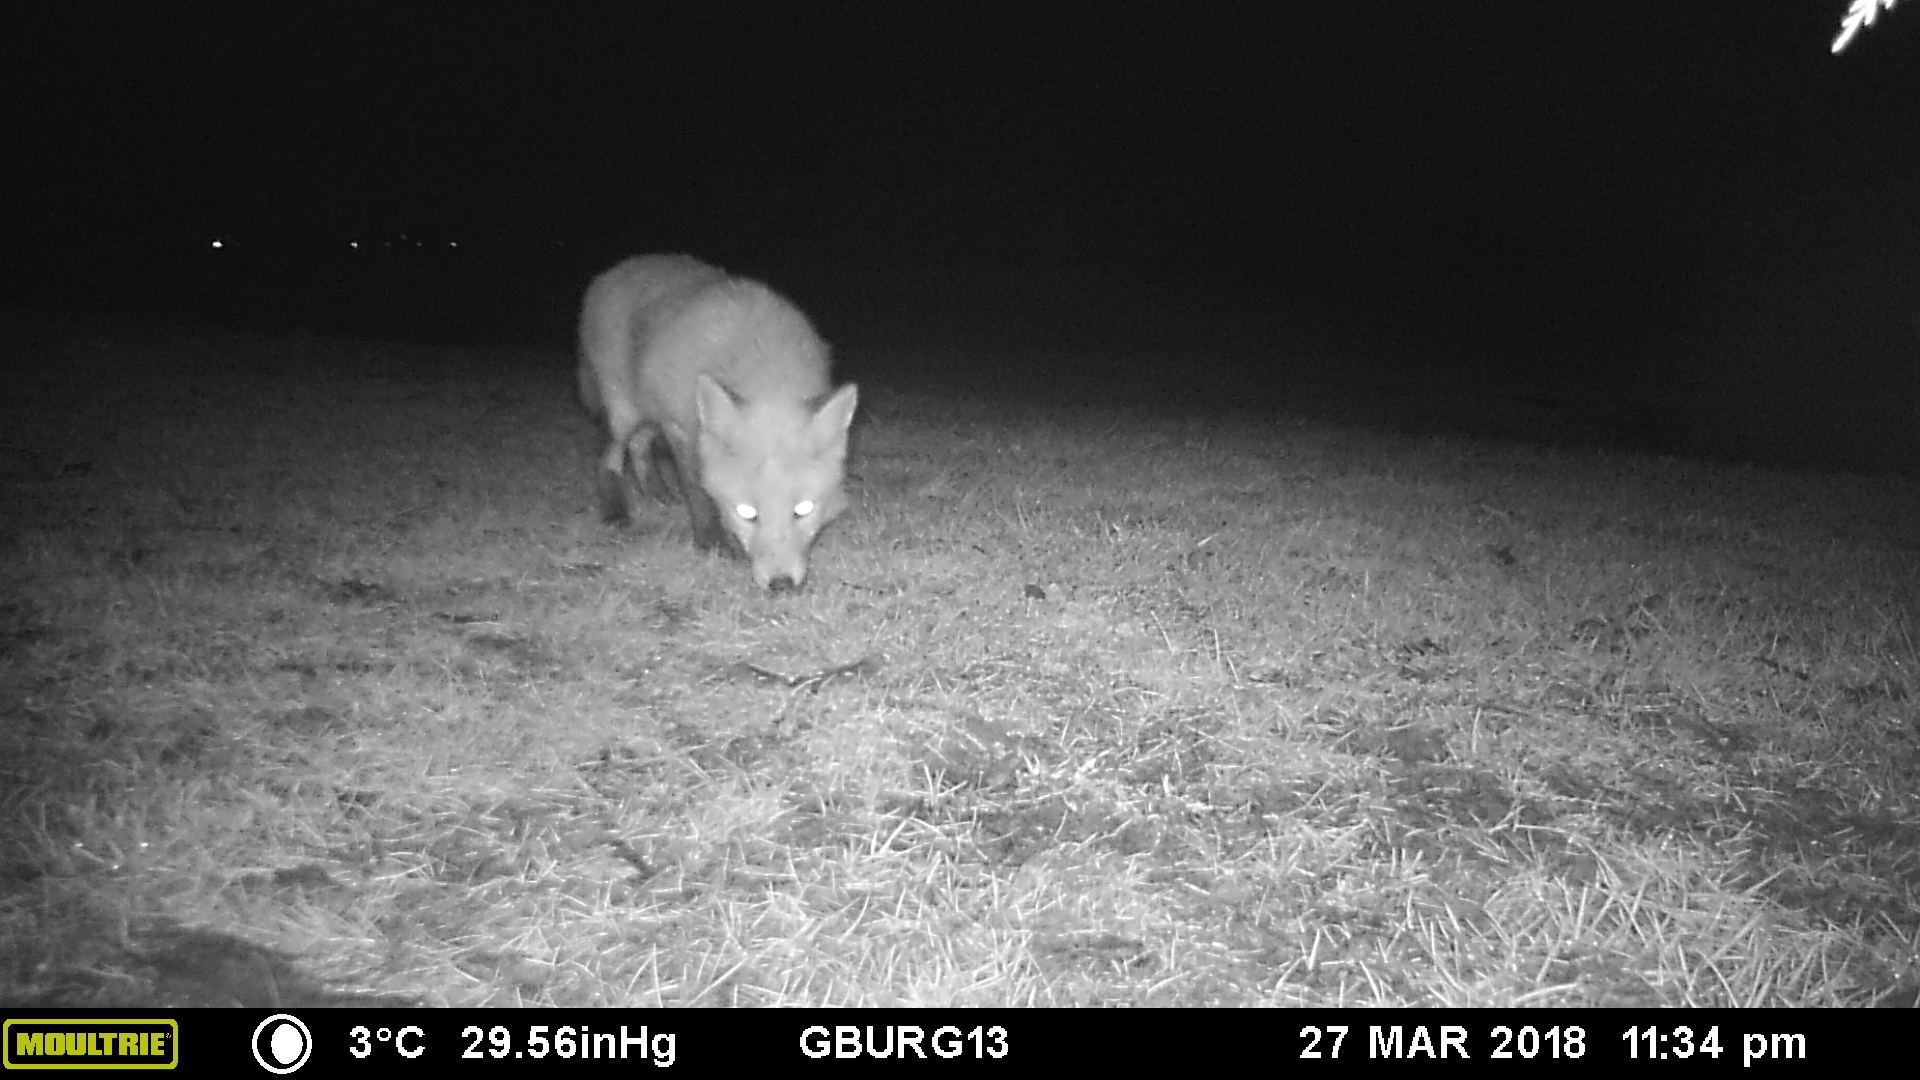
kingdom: Animalia
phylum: Chordata
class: Mammalia
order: Carnivora
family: Canidae
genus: Vulpes
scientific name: Vulpes vulpes
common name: Red fox
